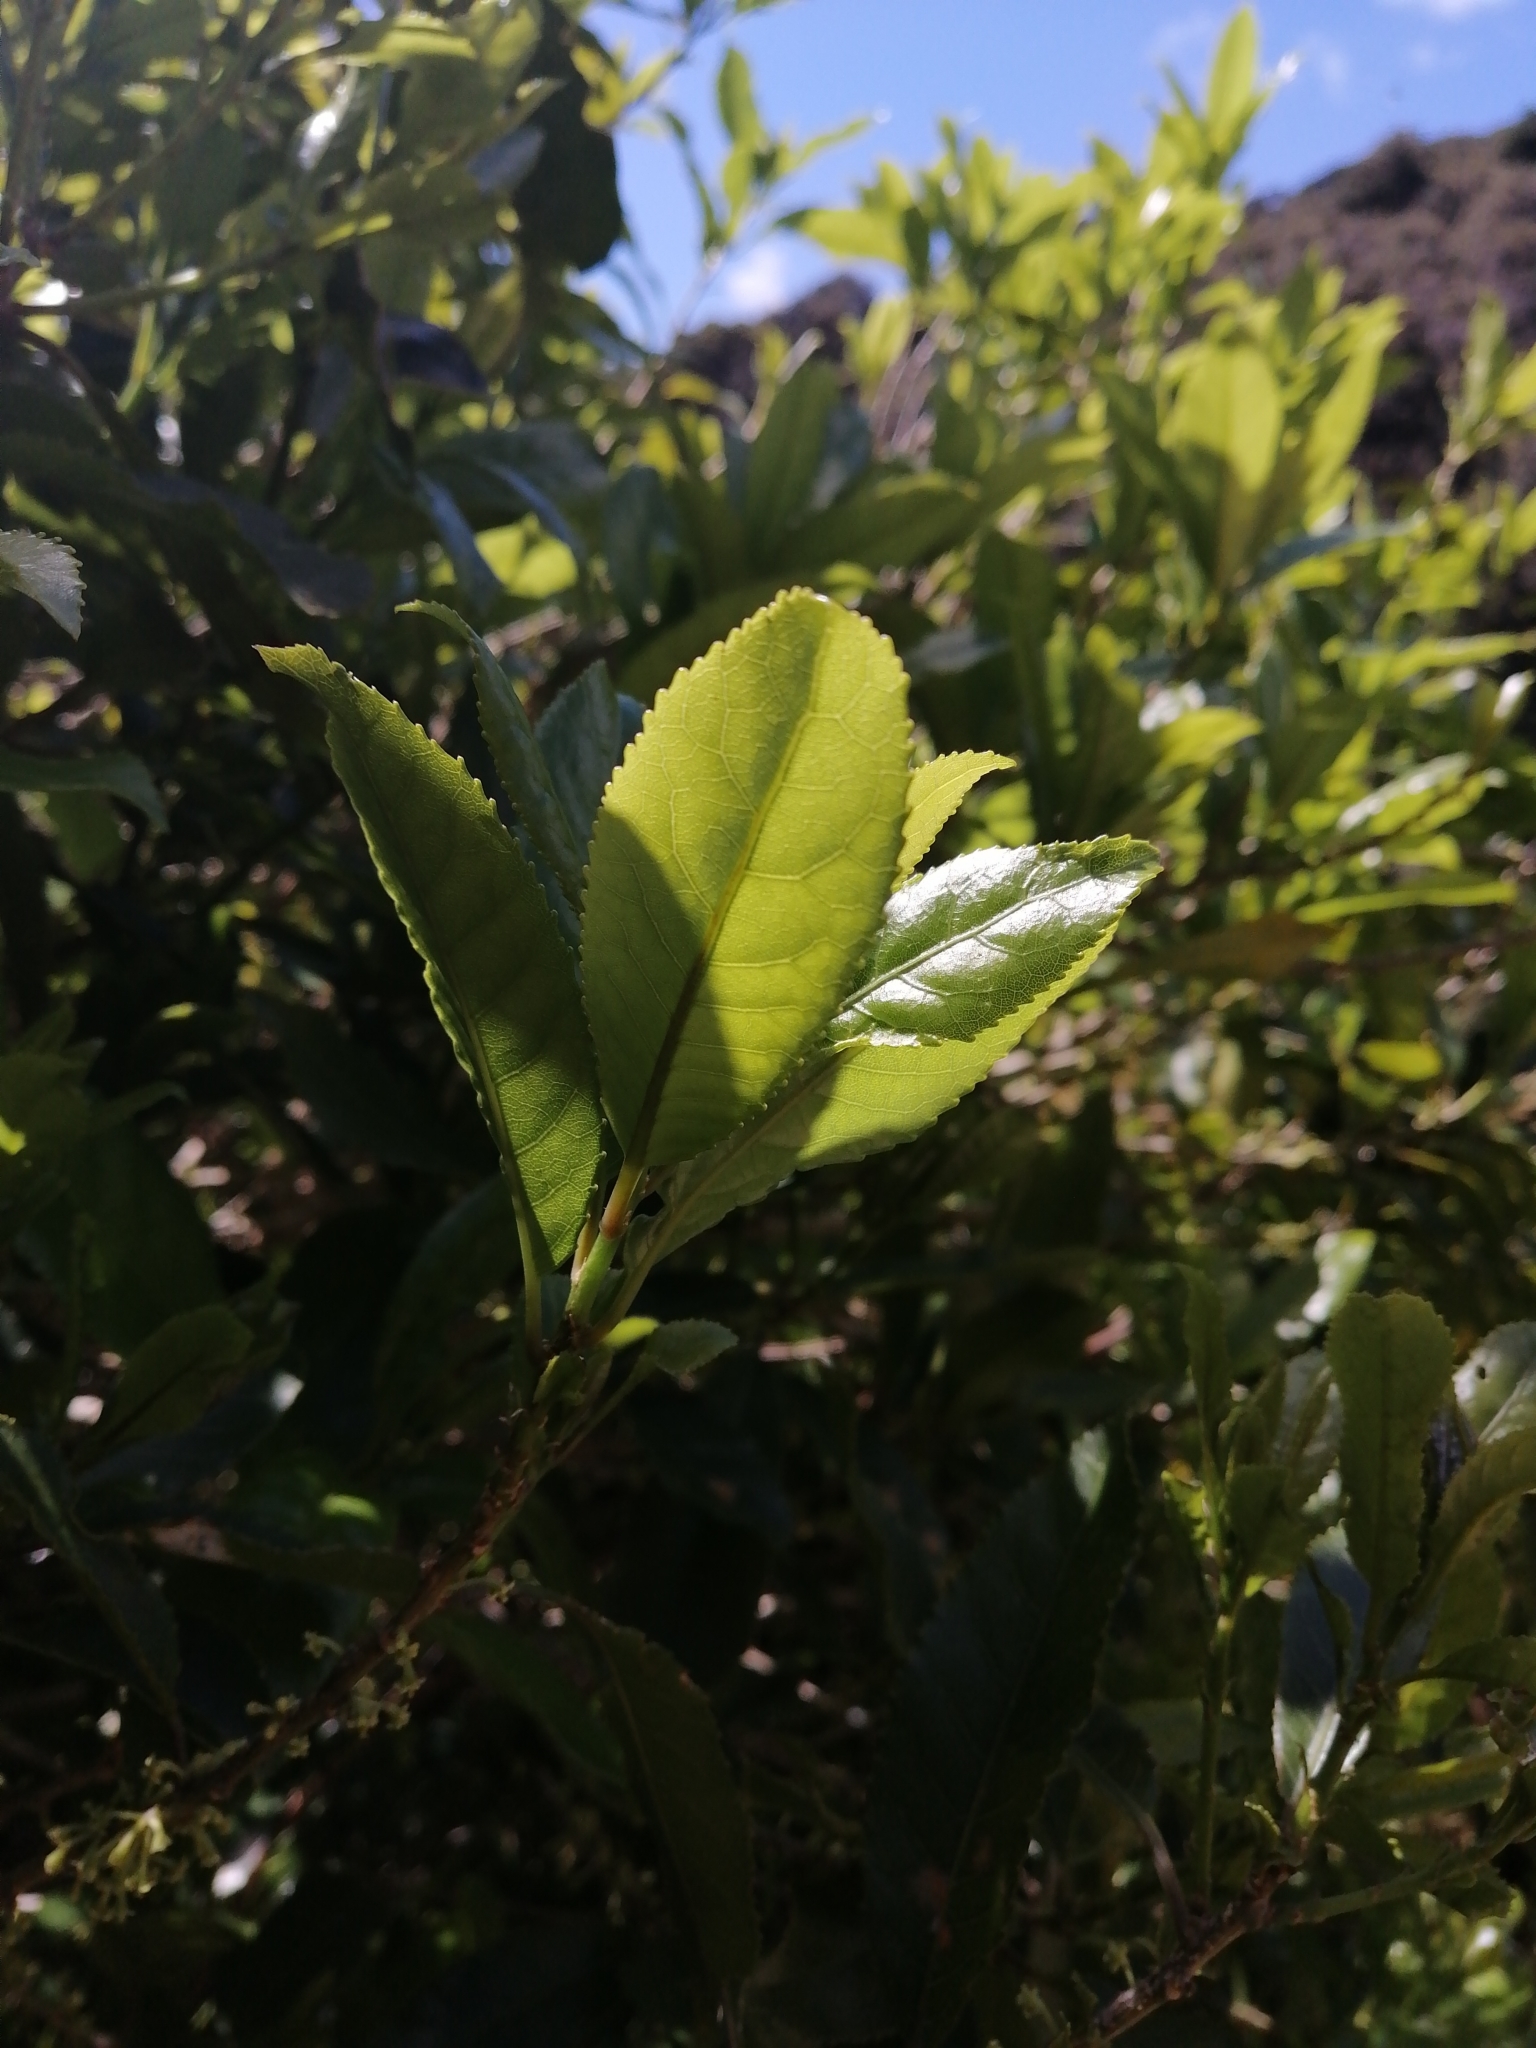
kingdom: Plantae
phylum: Tracheophyta
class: Magnoliopsida
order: Malpighiales
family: Violaceae
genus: Melicytus
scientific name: Melicytus ramiflorus
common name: Mahoe
